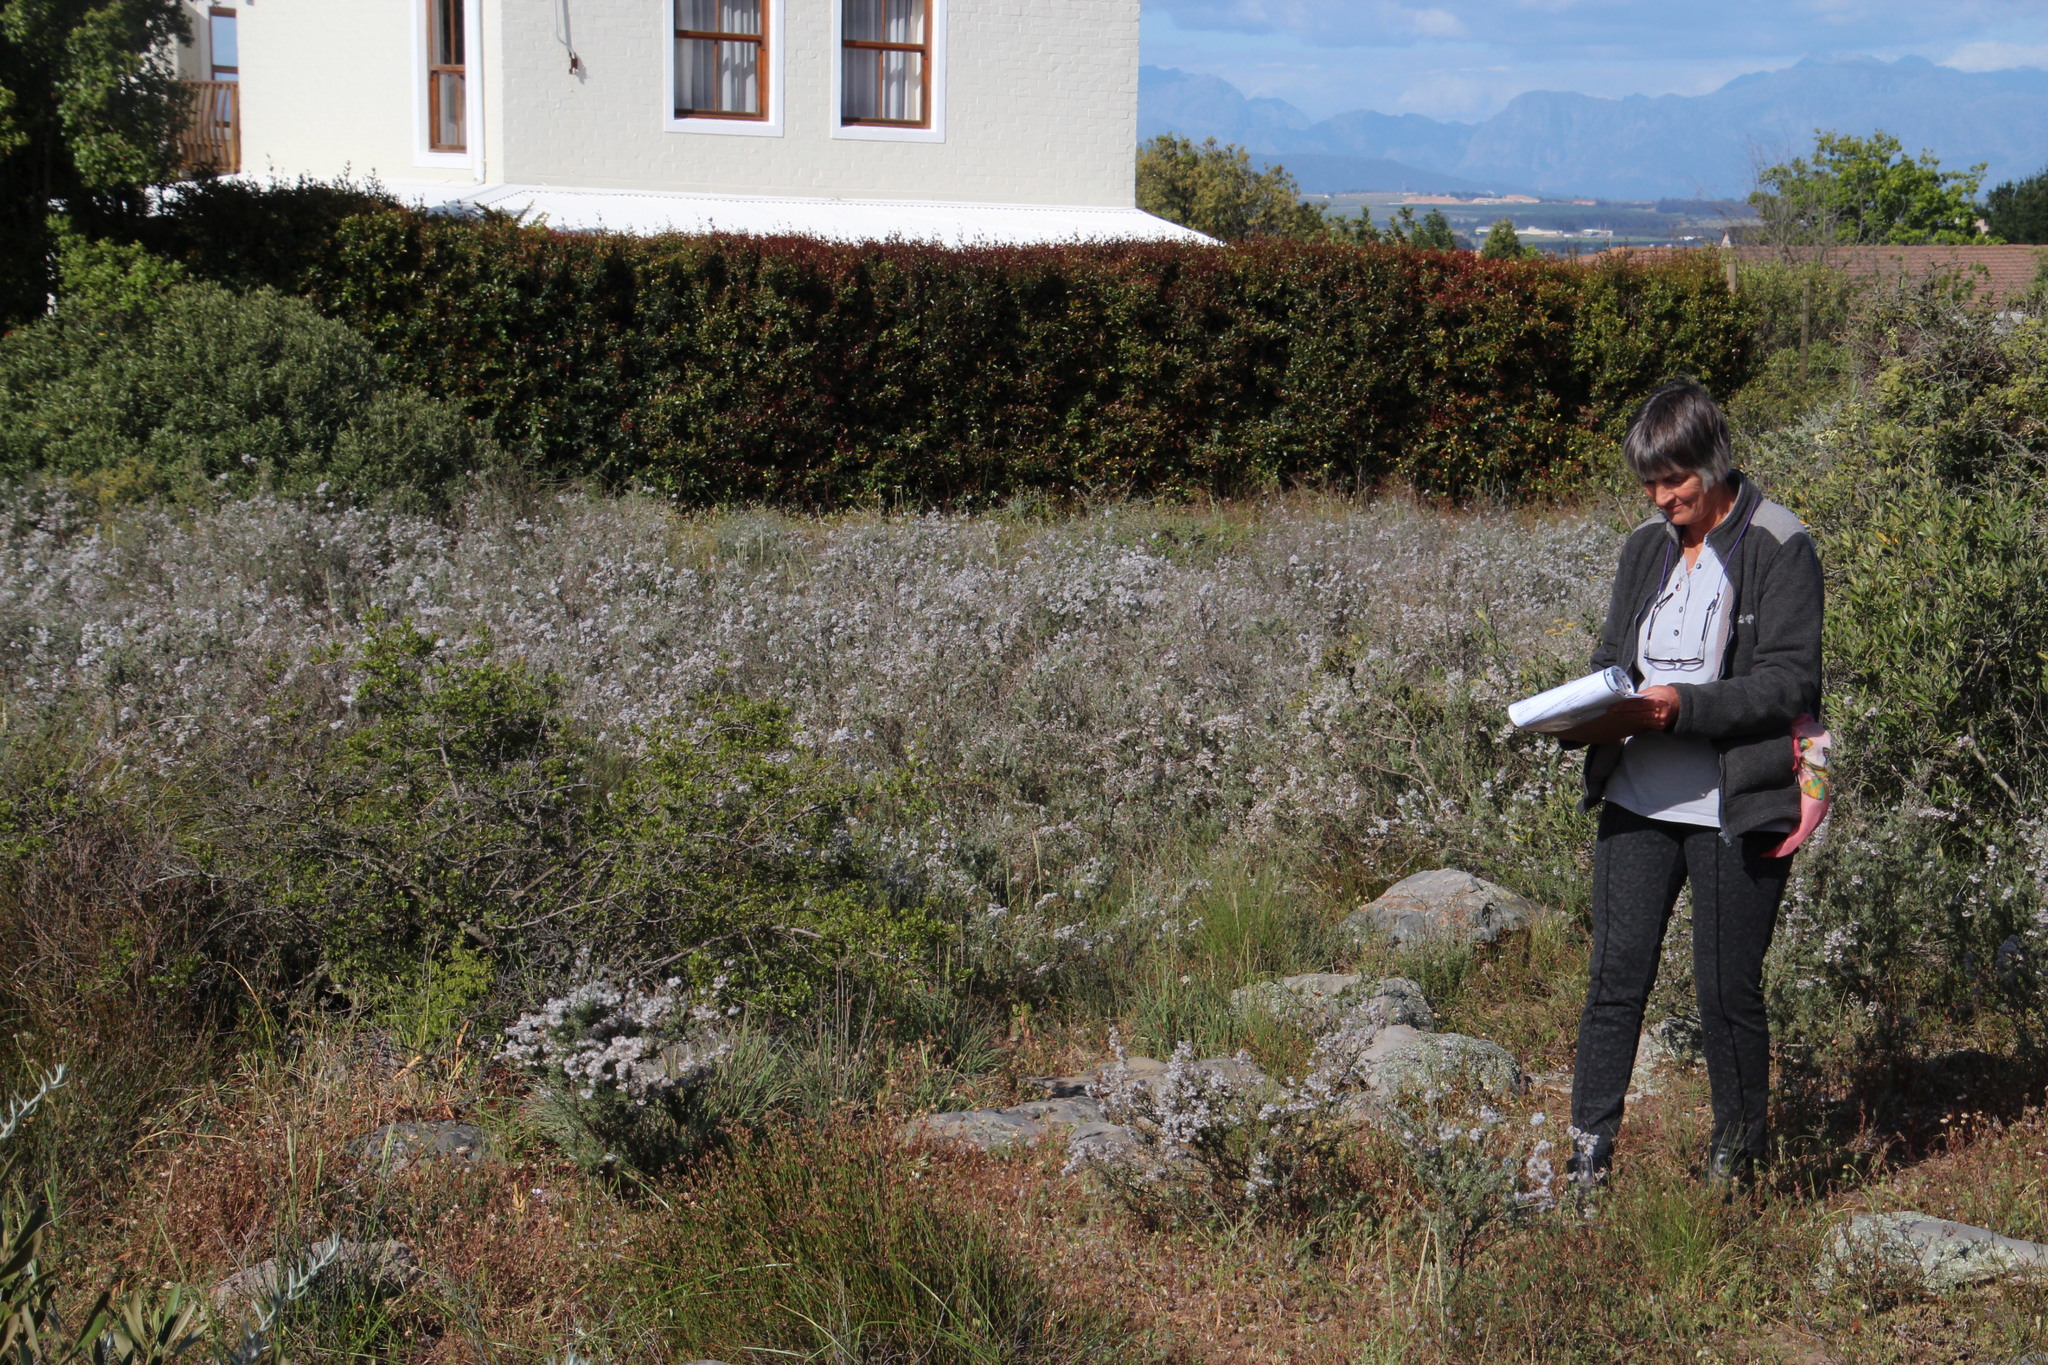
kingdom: Plantae
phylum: Tracheophyta
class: Magnoliopsida
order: Asterales
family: Asteraceae
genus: Eriocephalus
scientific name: Eriocephalus africanus
